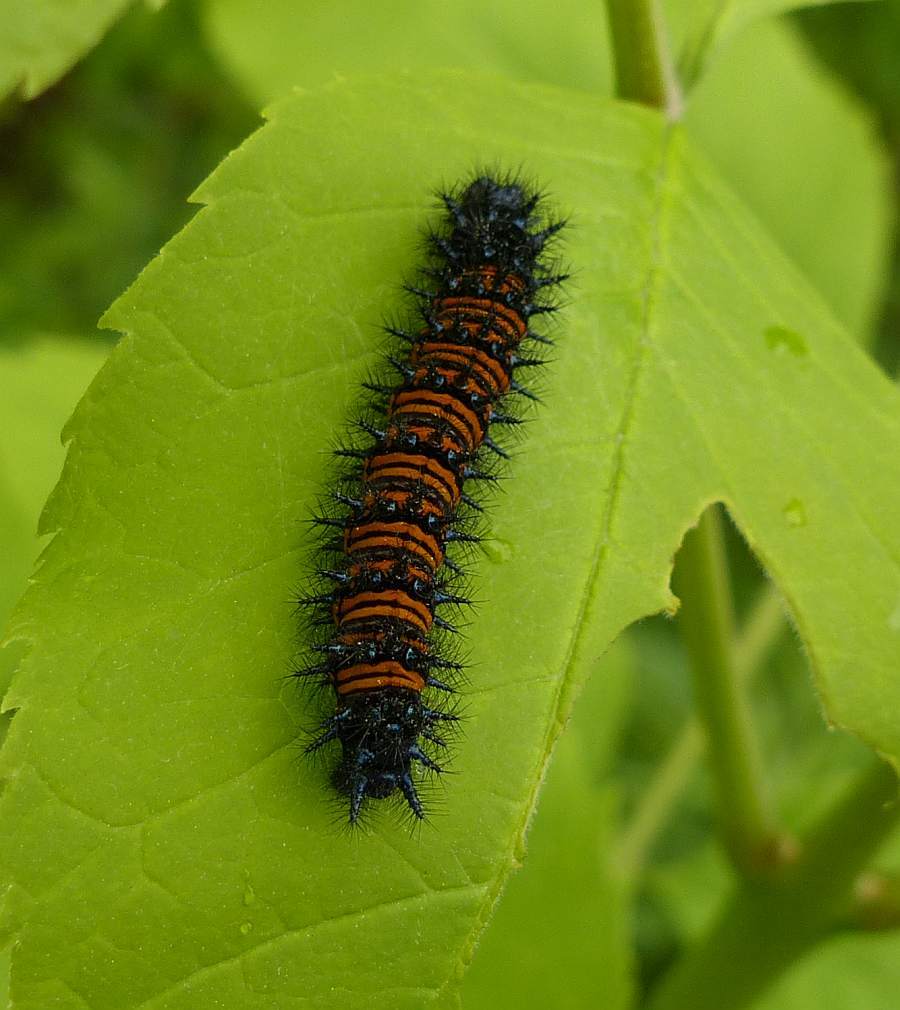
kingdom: Animalia
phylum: Arthropoda
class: Insecta
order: Lepidoptera
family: Nymphalidae
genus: Euphydryas
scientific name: Euphydryas phaeton
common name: Baltimore checkerspot
